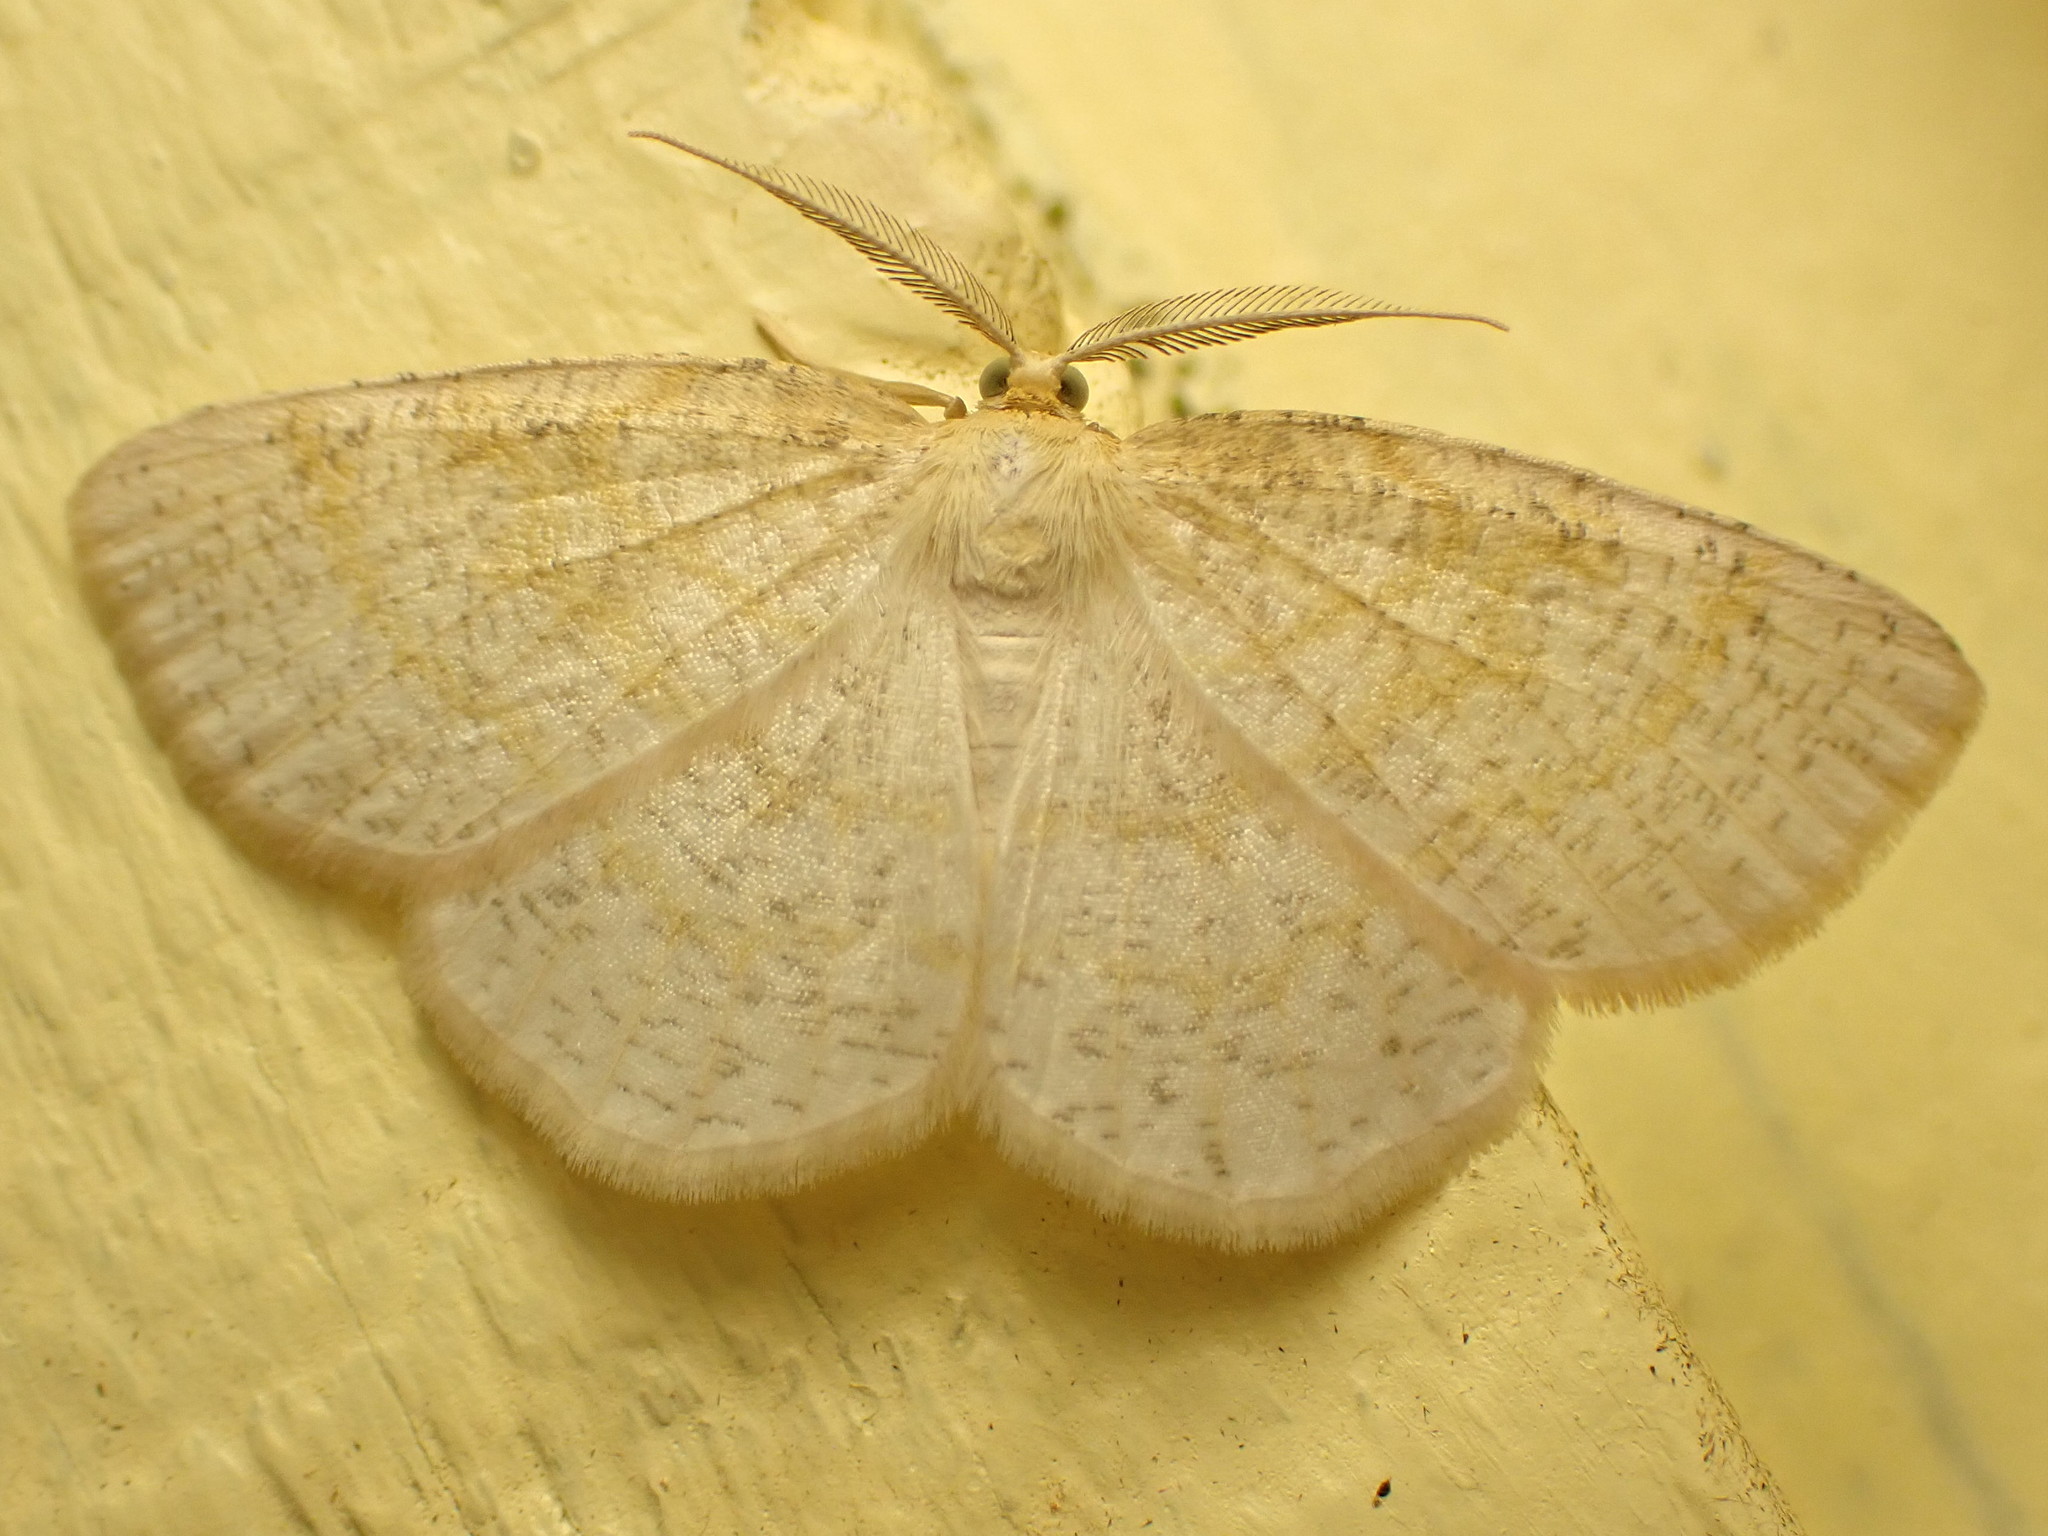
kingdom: Animalia
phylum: Arthropoda
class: Insecta
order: Lepidoptera
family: Geometridae
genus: Cabera
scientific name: Cabera erythemaria
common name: Yellow-dusted cream moth
